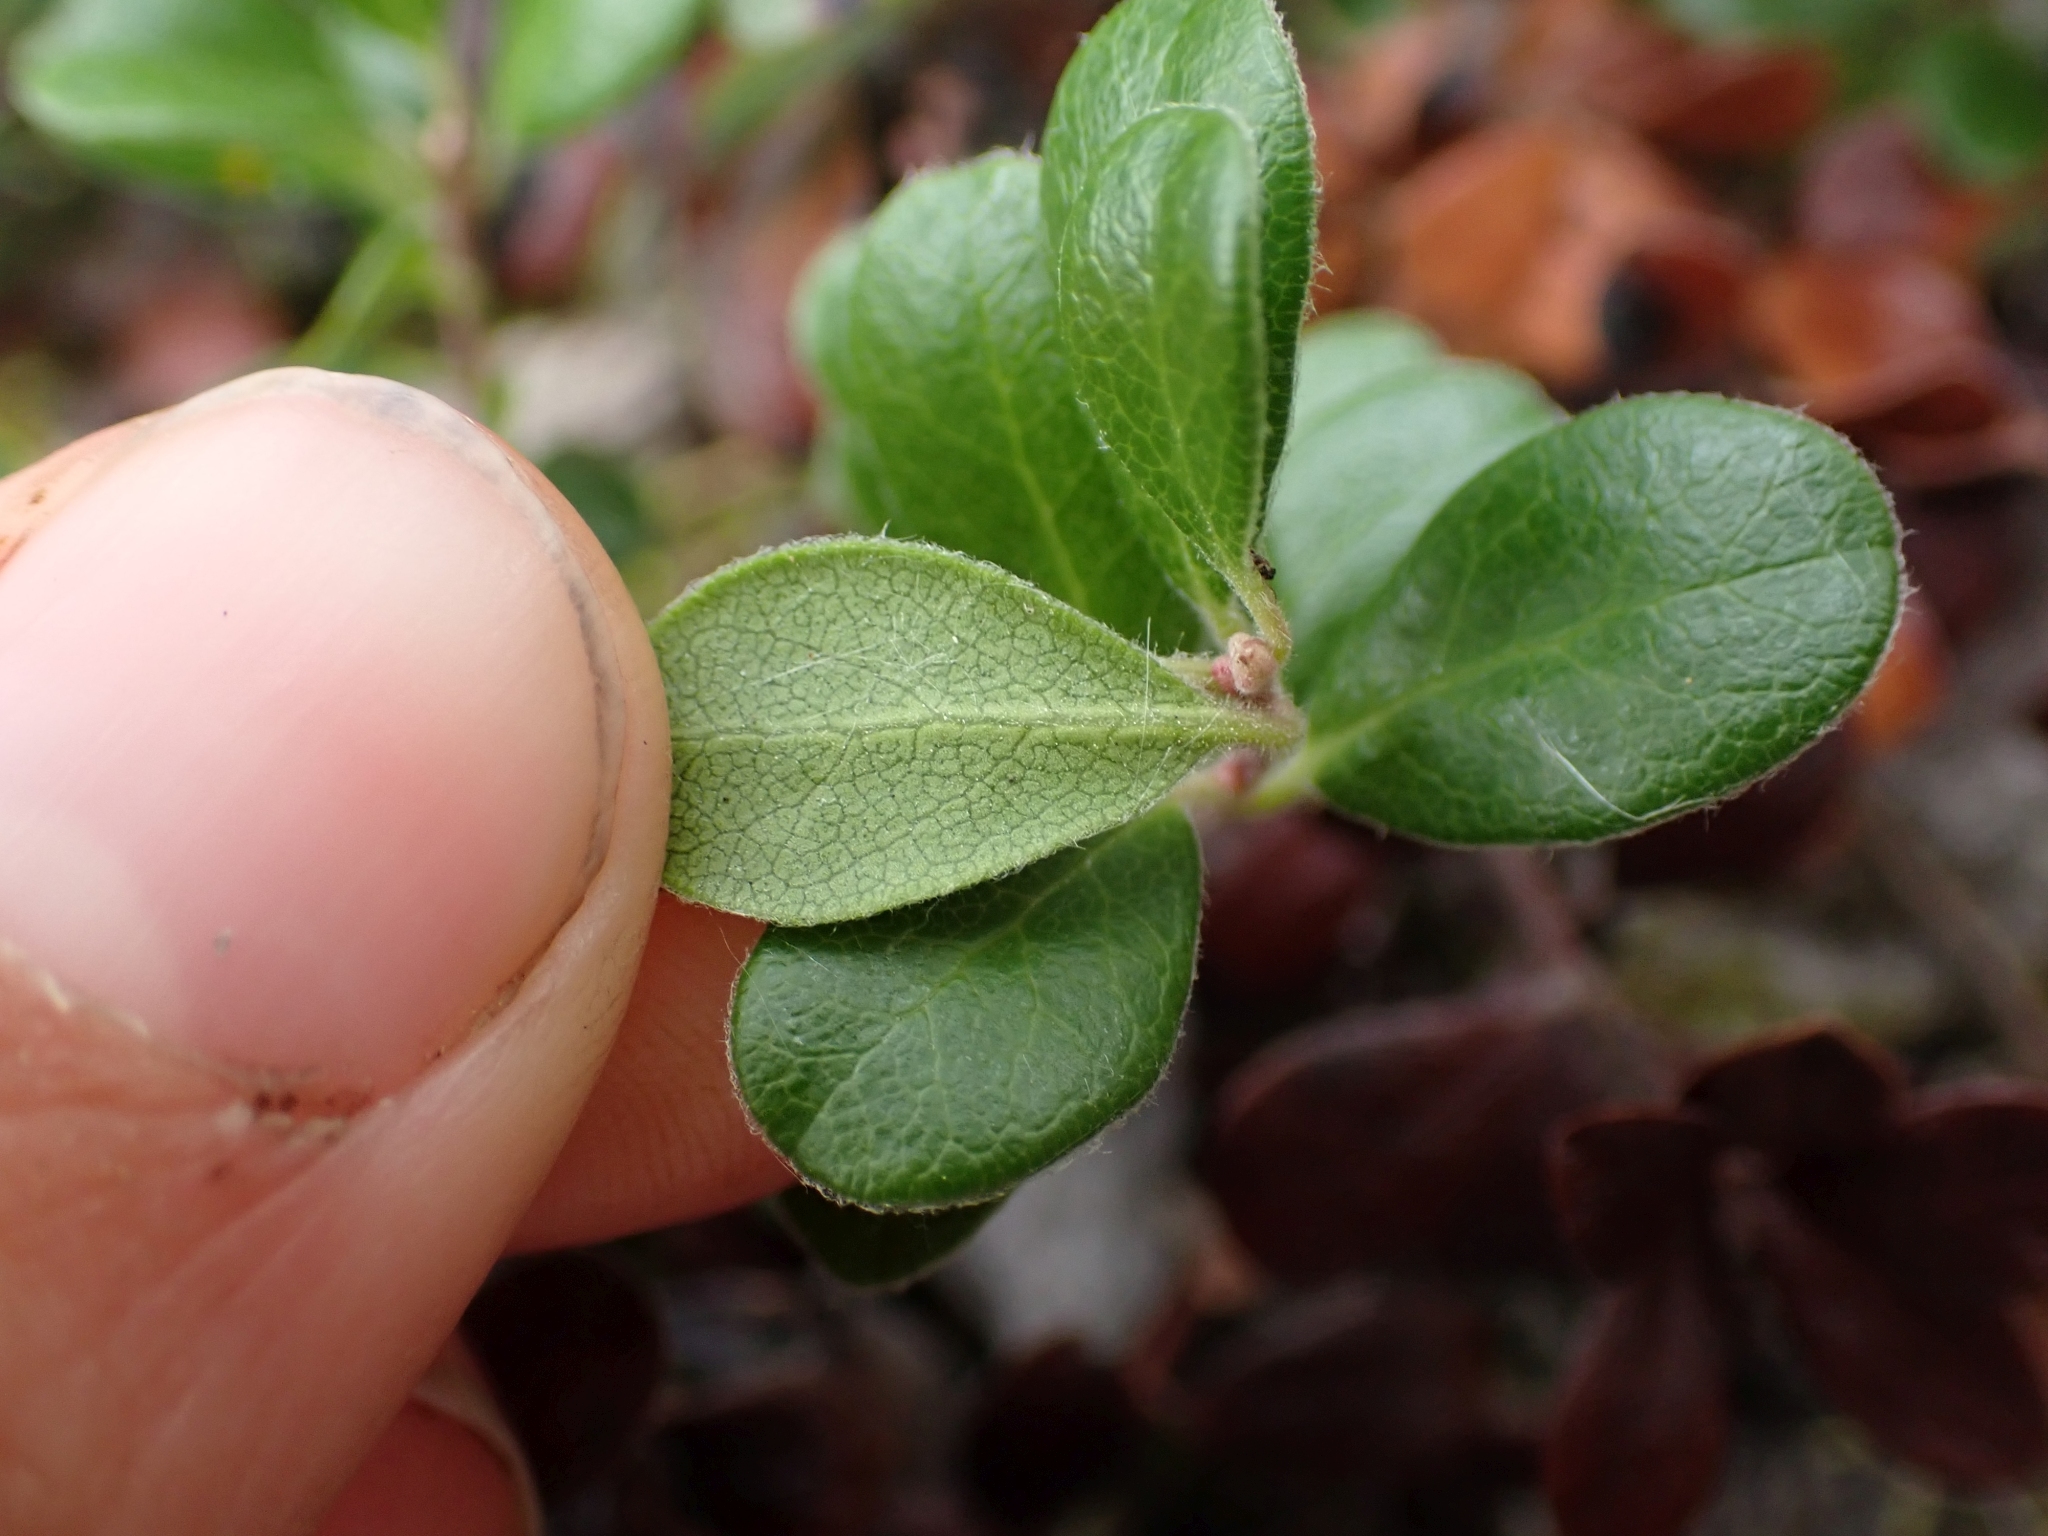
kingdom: Plantae
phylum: Tracheophyta
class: Magnoliopsida
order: Ericales
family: Ericaceae
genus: Arctostaphylos
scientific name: Arctostaphylos uva-ursi
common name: Bearberry
